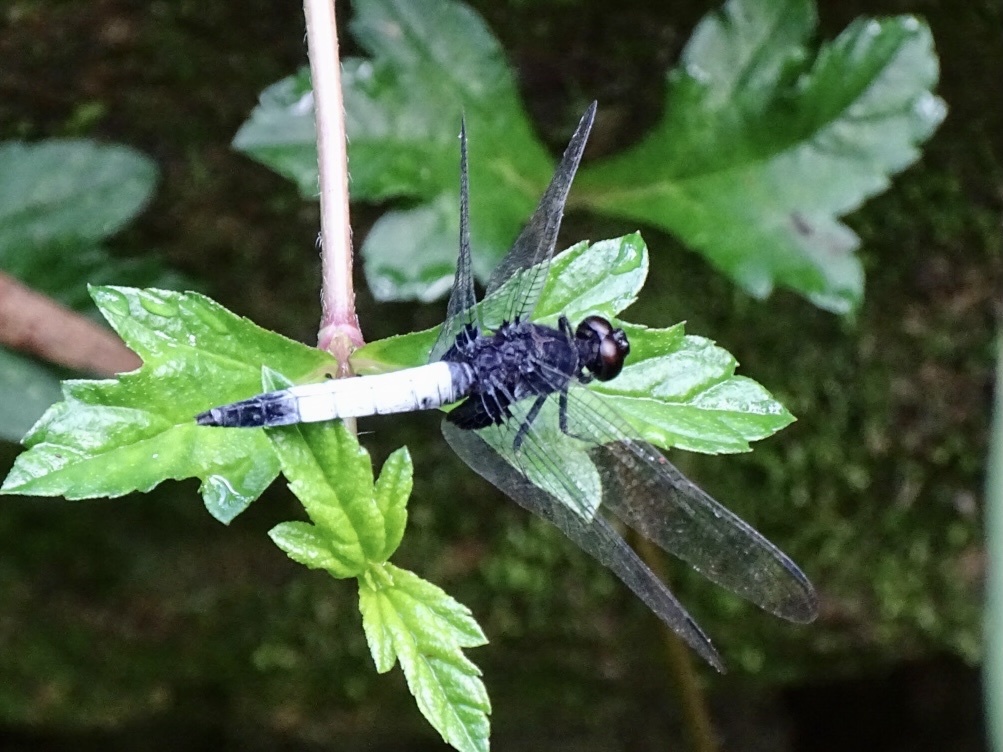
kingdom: Animalia
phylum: Arthropoda
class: Insecta
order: Odonata
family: Libellulidae
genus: Orthetrum
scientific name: Orthetrum triangulare
